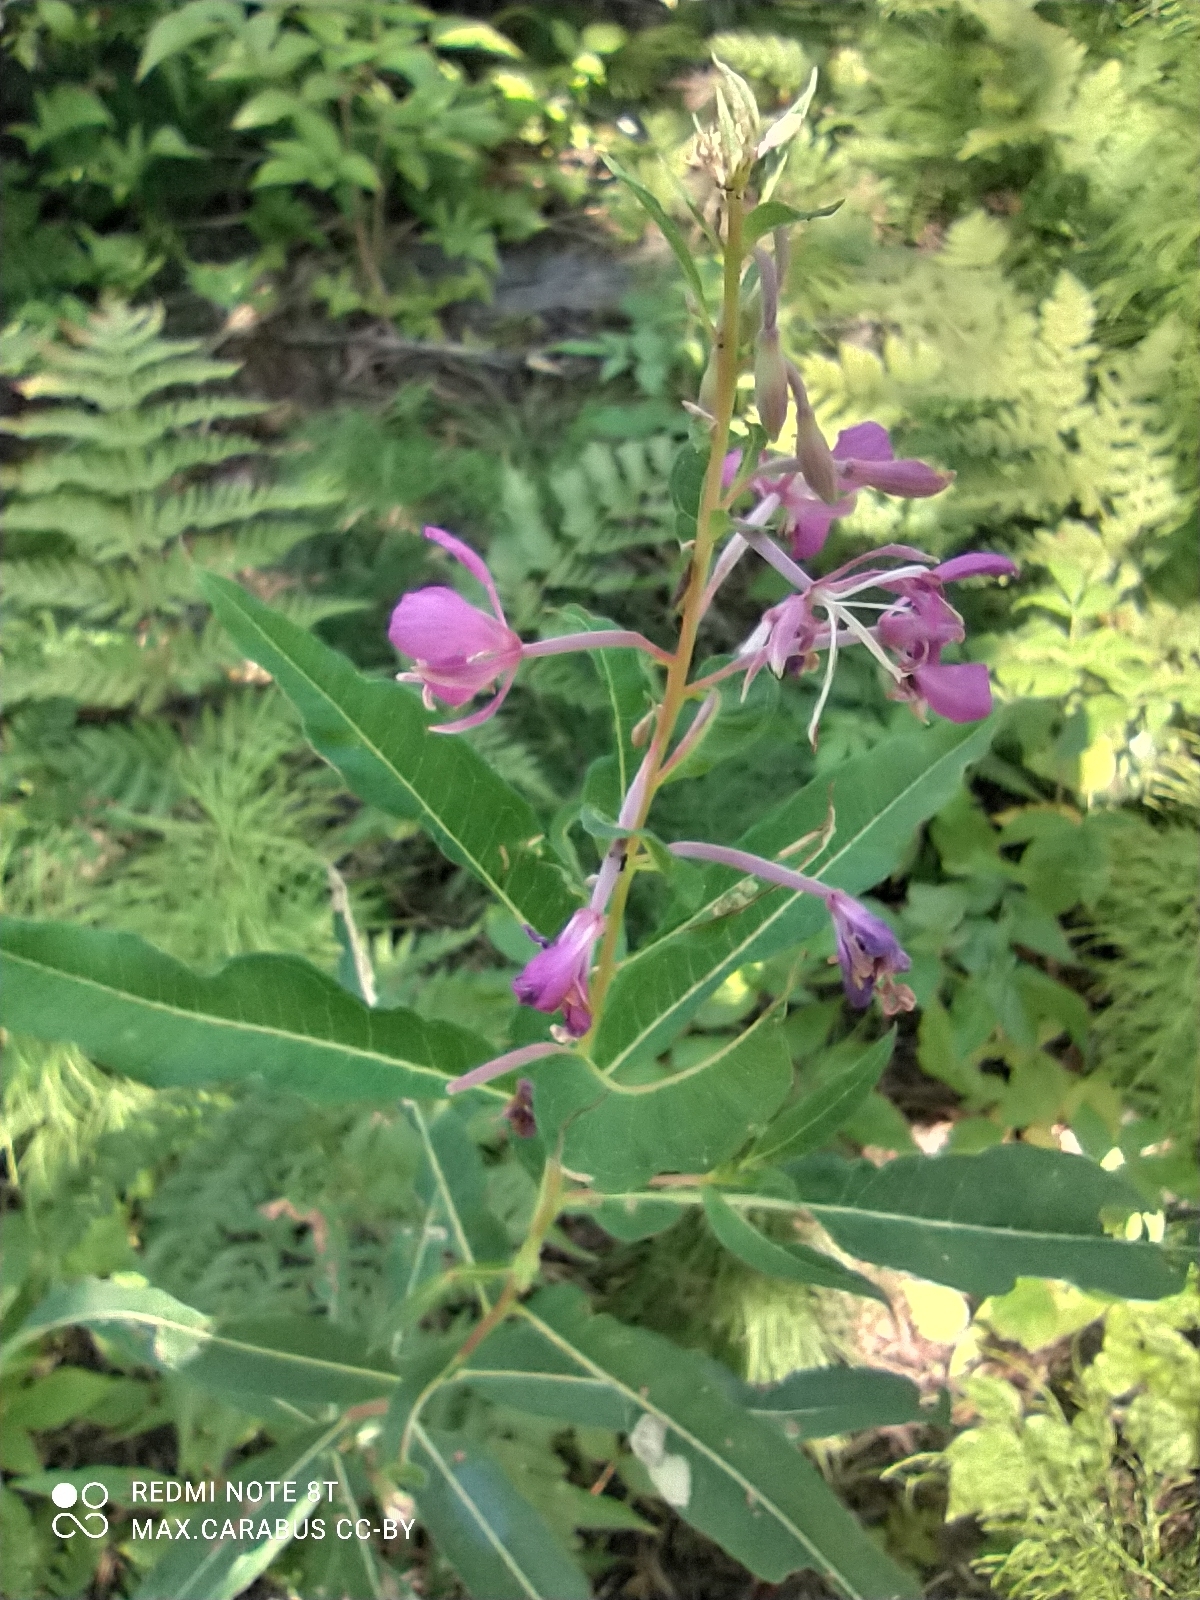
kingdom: Plantae
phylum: Tracheophyta
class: Magnoliopsida
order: Myrtales
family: Onagraceae
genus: Chamaenerion
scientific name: Chamaenerion angustifolium
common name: Fireweed
